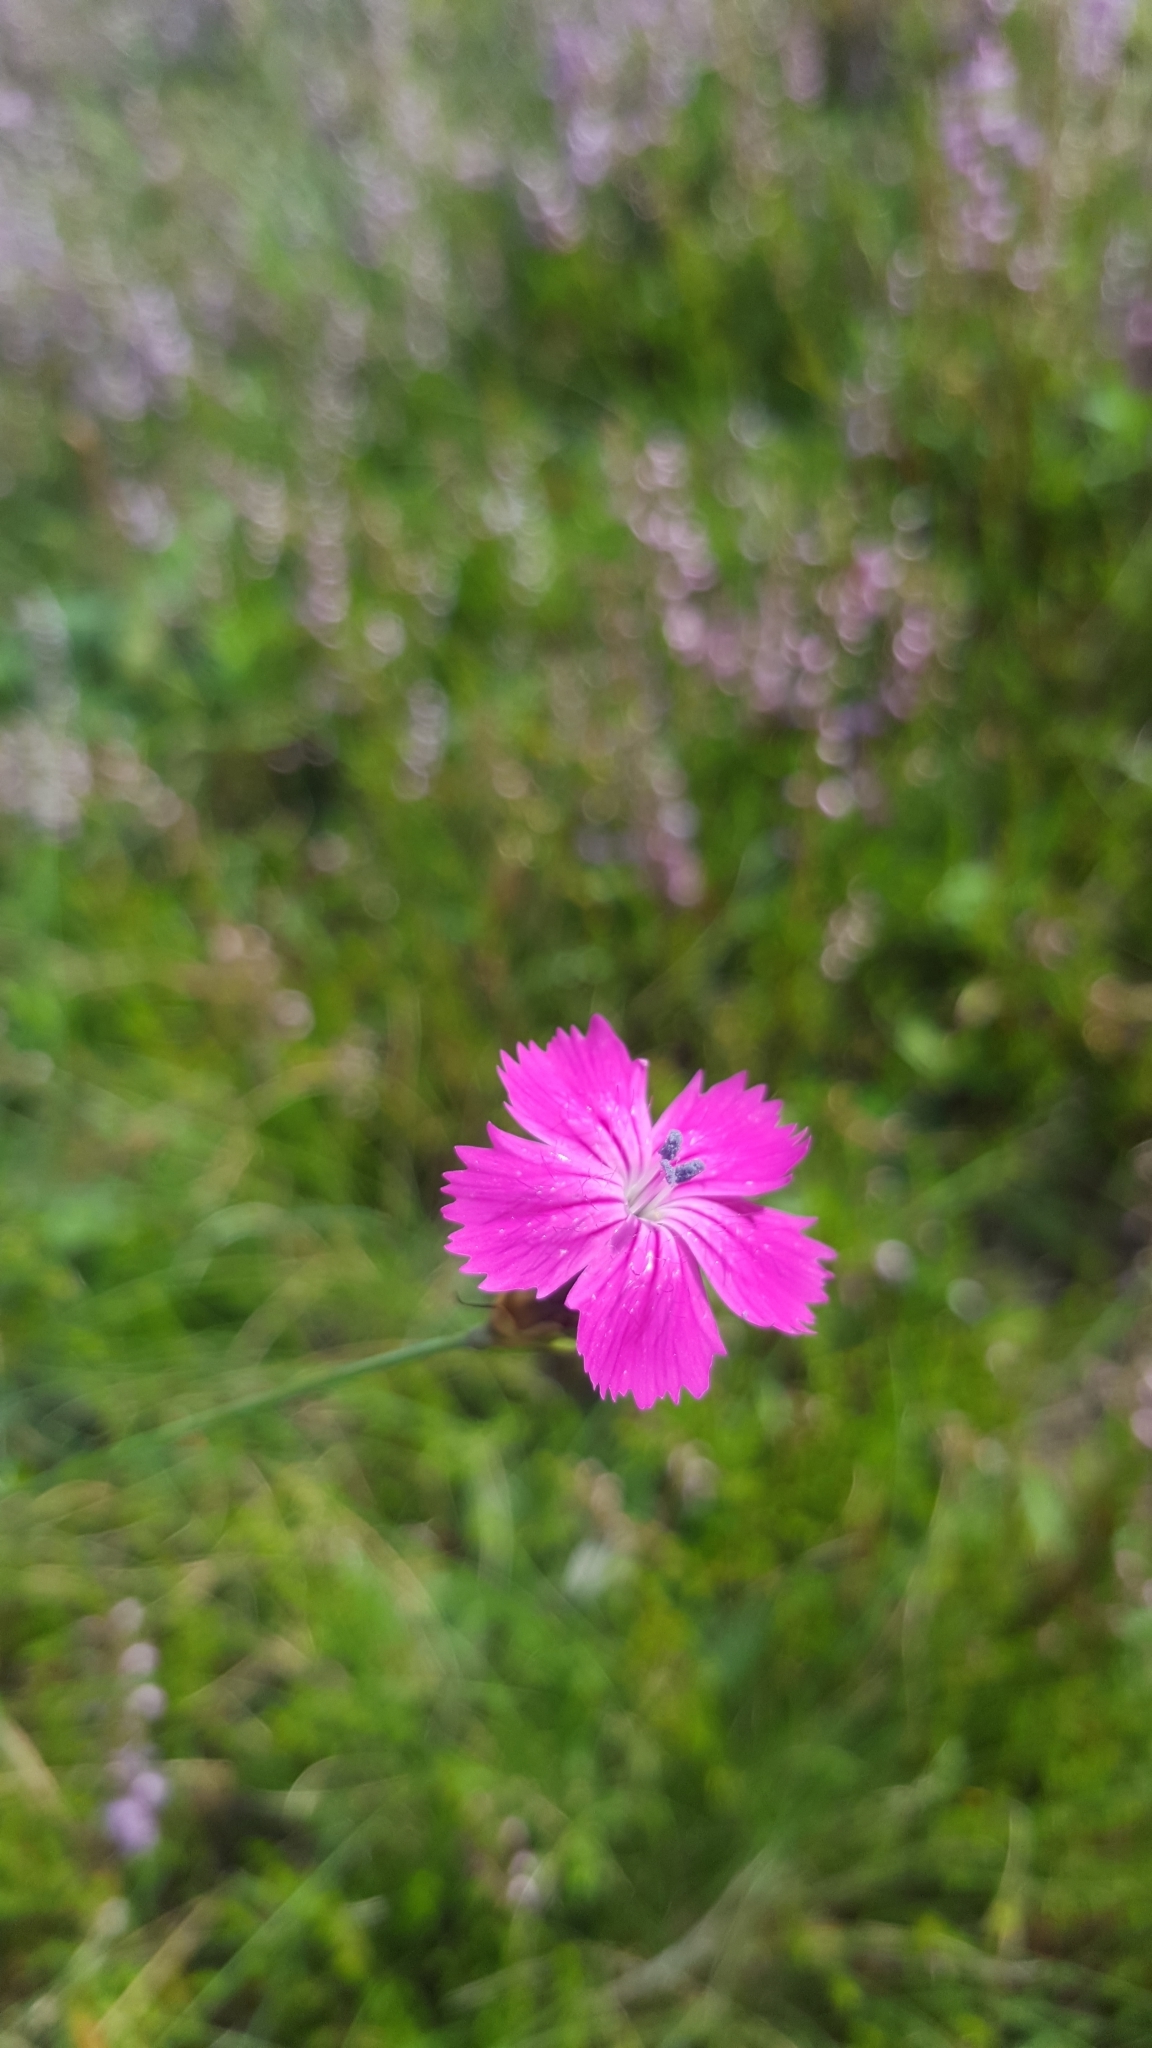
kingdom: Plantae
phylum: Tracheophyta
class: Magnoliopsida
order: Caryophyllales
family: Caryophyllaceae
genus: Dianthus
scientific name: Dianthus carthusianorum
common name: Carthusian pink
